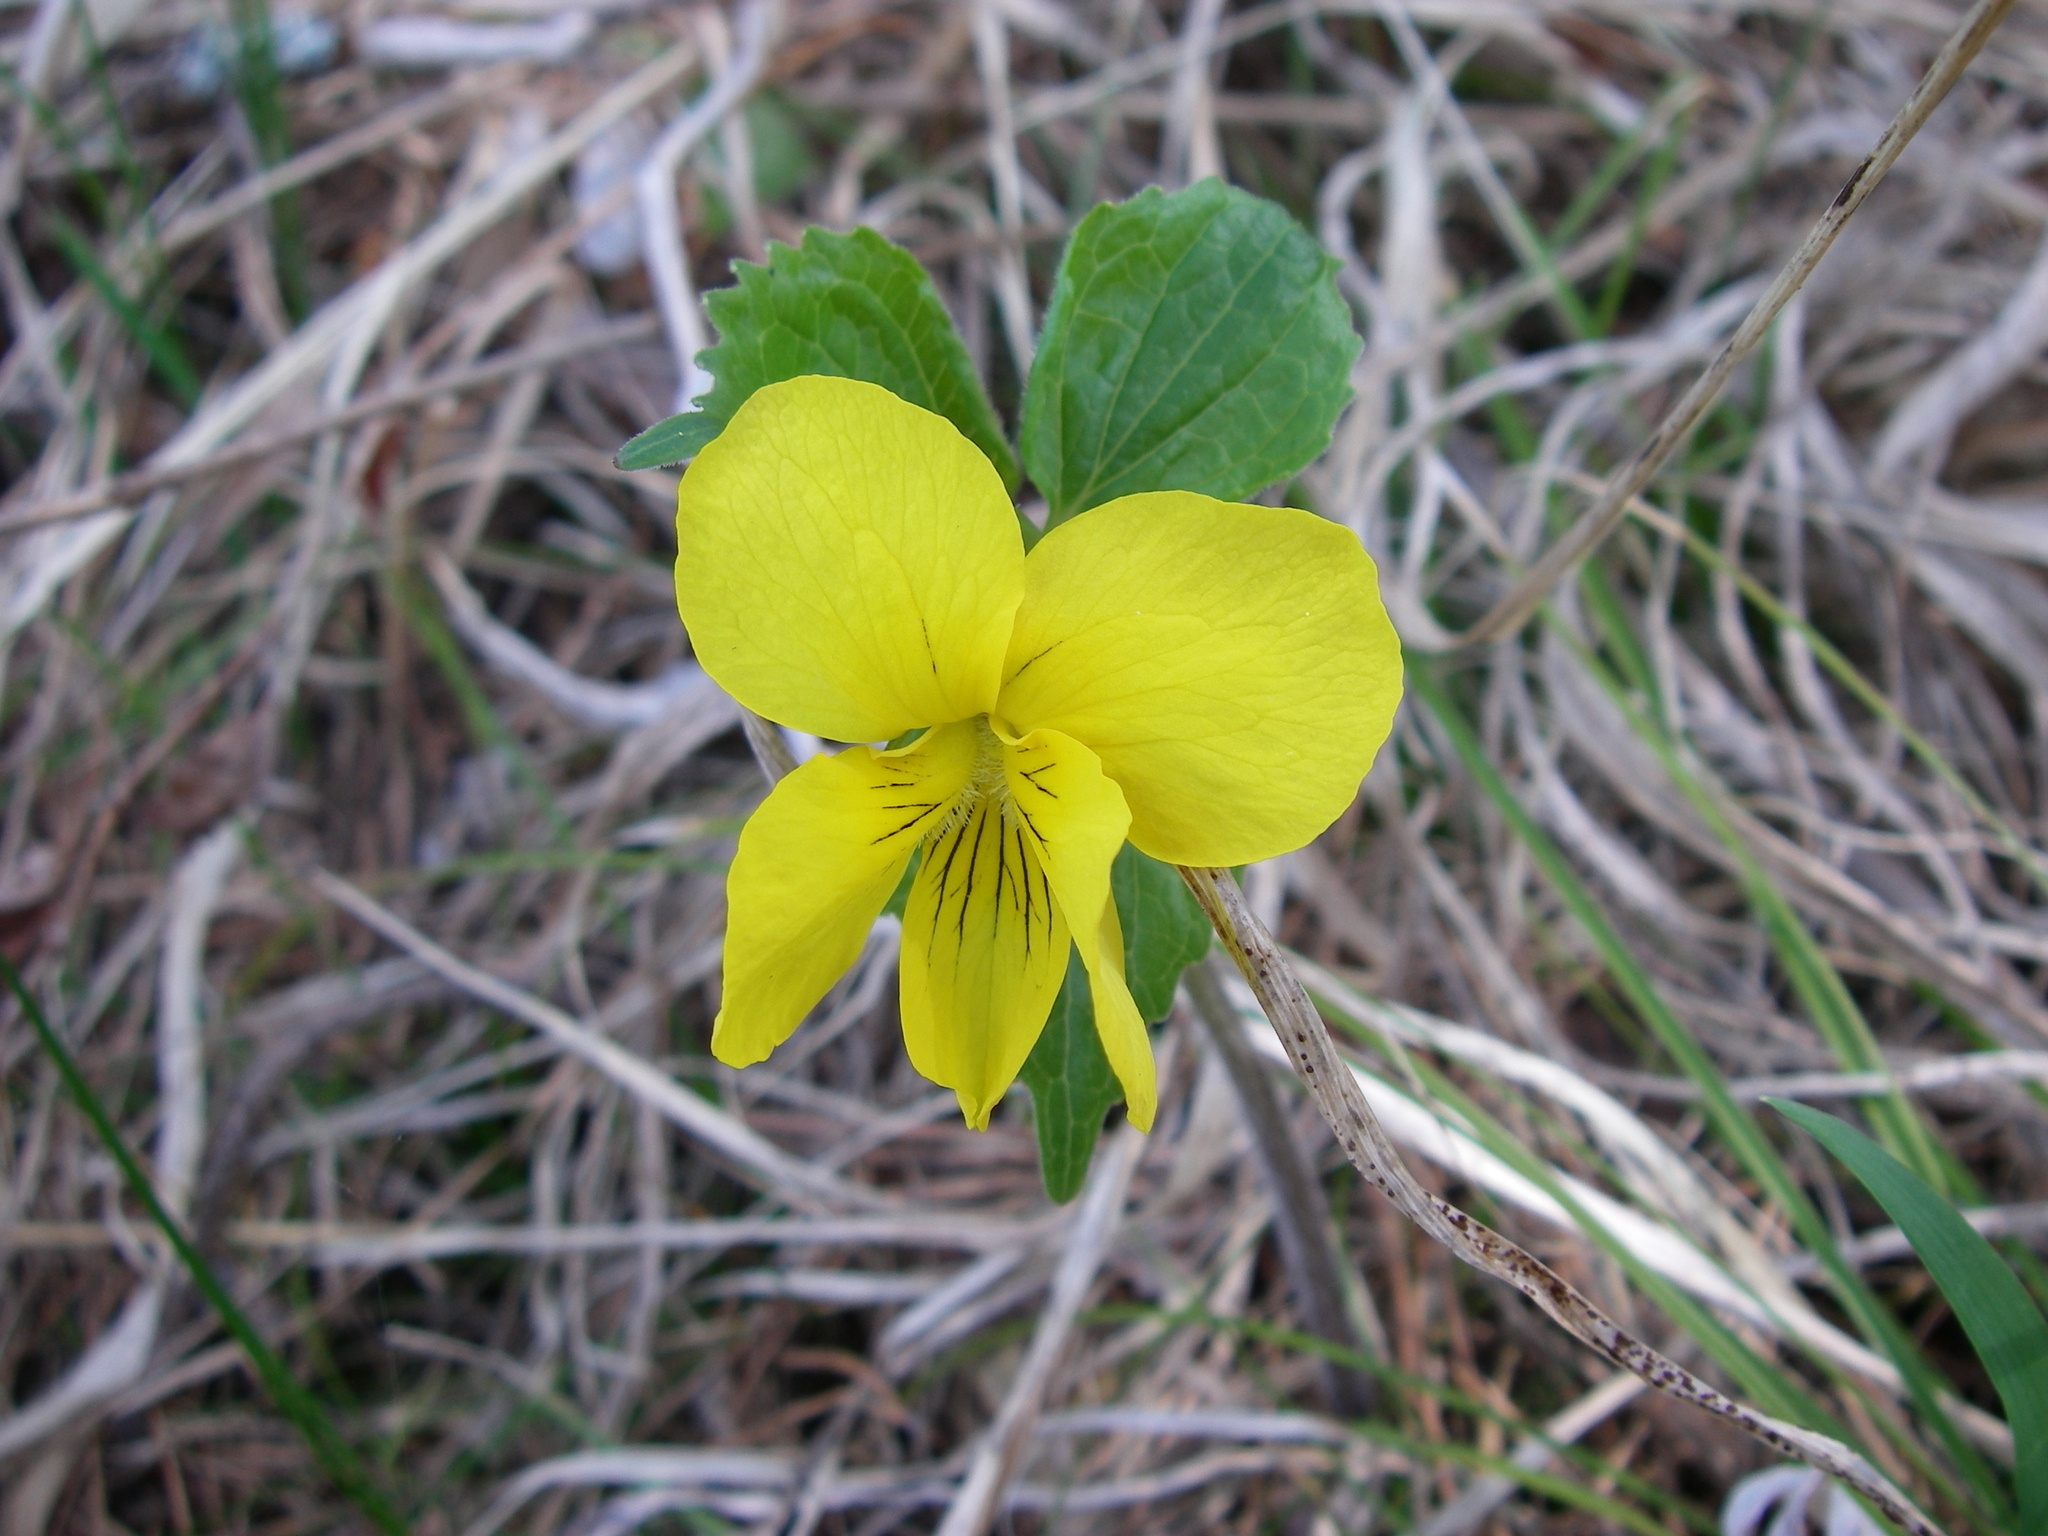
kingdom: Plantae
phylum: Tracheophyta
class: Magnoliopsida
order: Malpighiales
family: Violaceae
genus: Viola
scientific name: Viola uniflora
